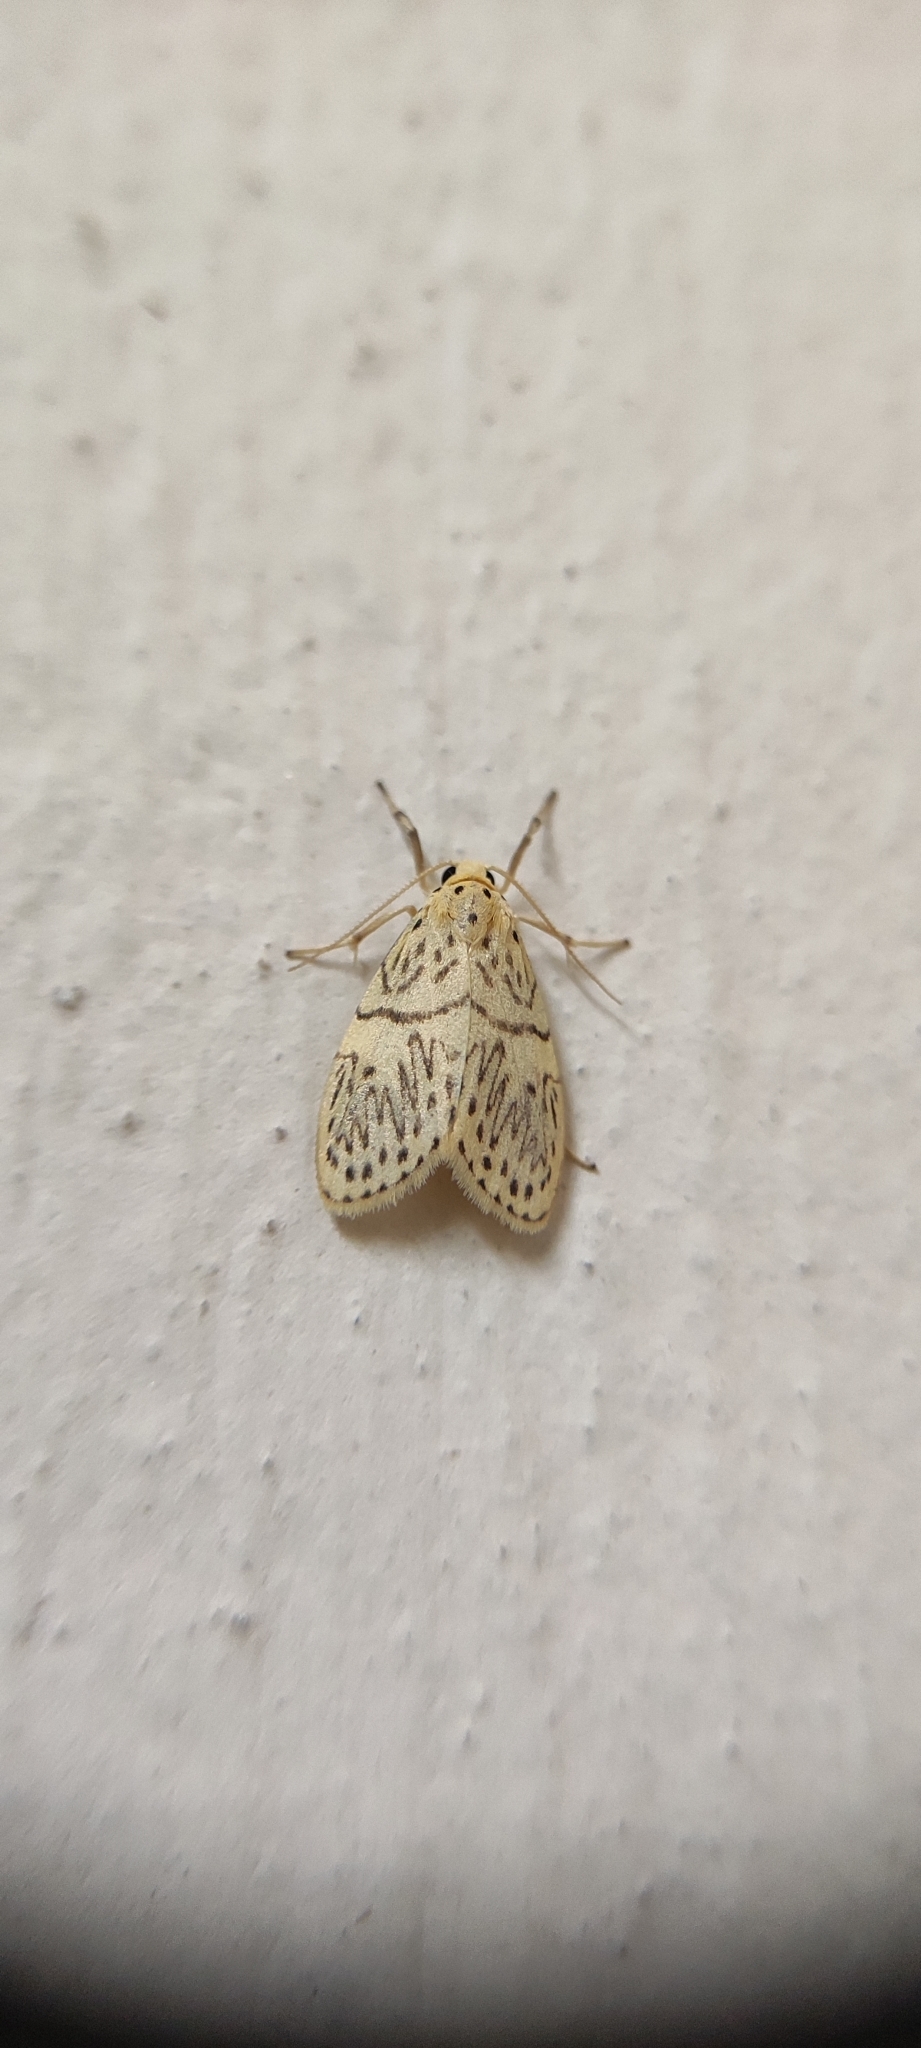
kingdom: Animalia
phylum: Arthropoda
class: Insecta
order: Lepidoptera
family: Erebidae
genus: Miltochrista
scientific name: Miltochrista undulosa
